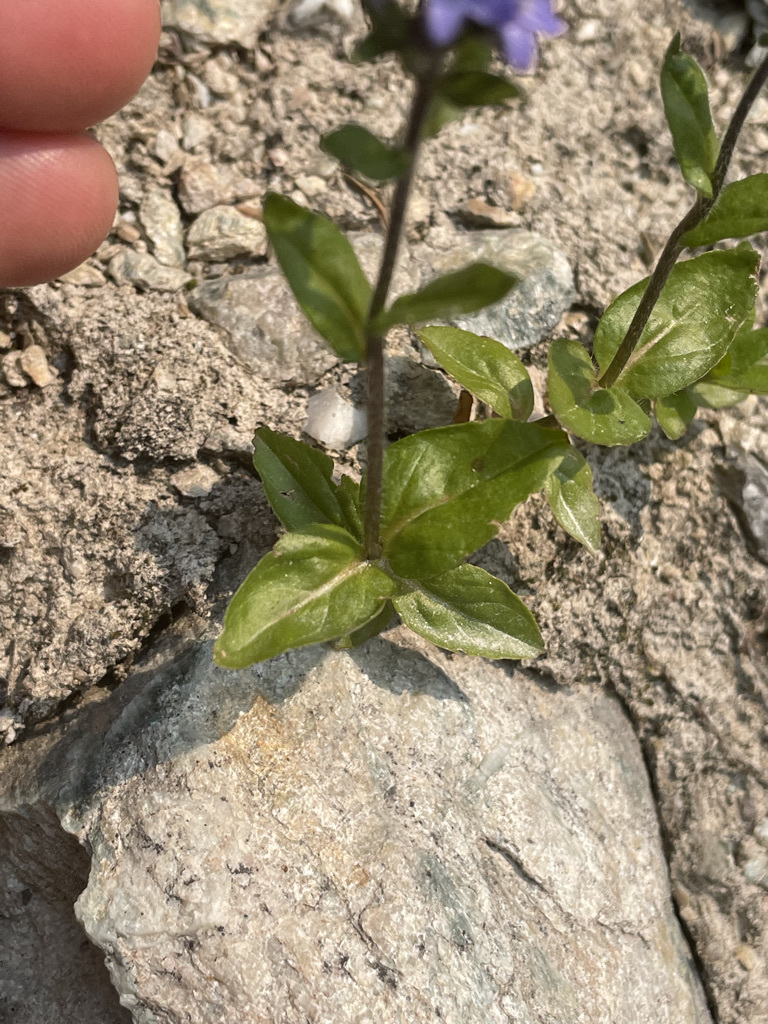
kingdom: Plantae
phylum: Tracheophyta
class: Magnoliopsida
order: Lamiales
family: Plantaginaceae
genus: Veronica
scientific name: Veronica wormskjoldii
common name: American alpine speedwell
